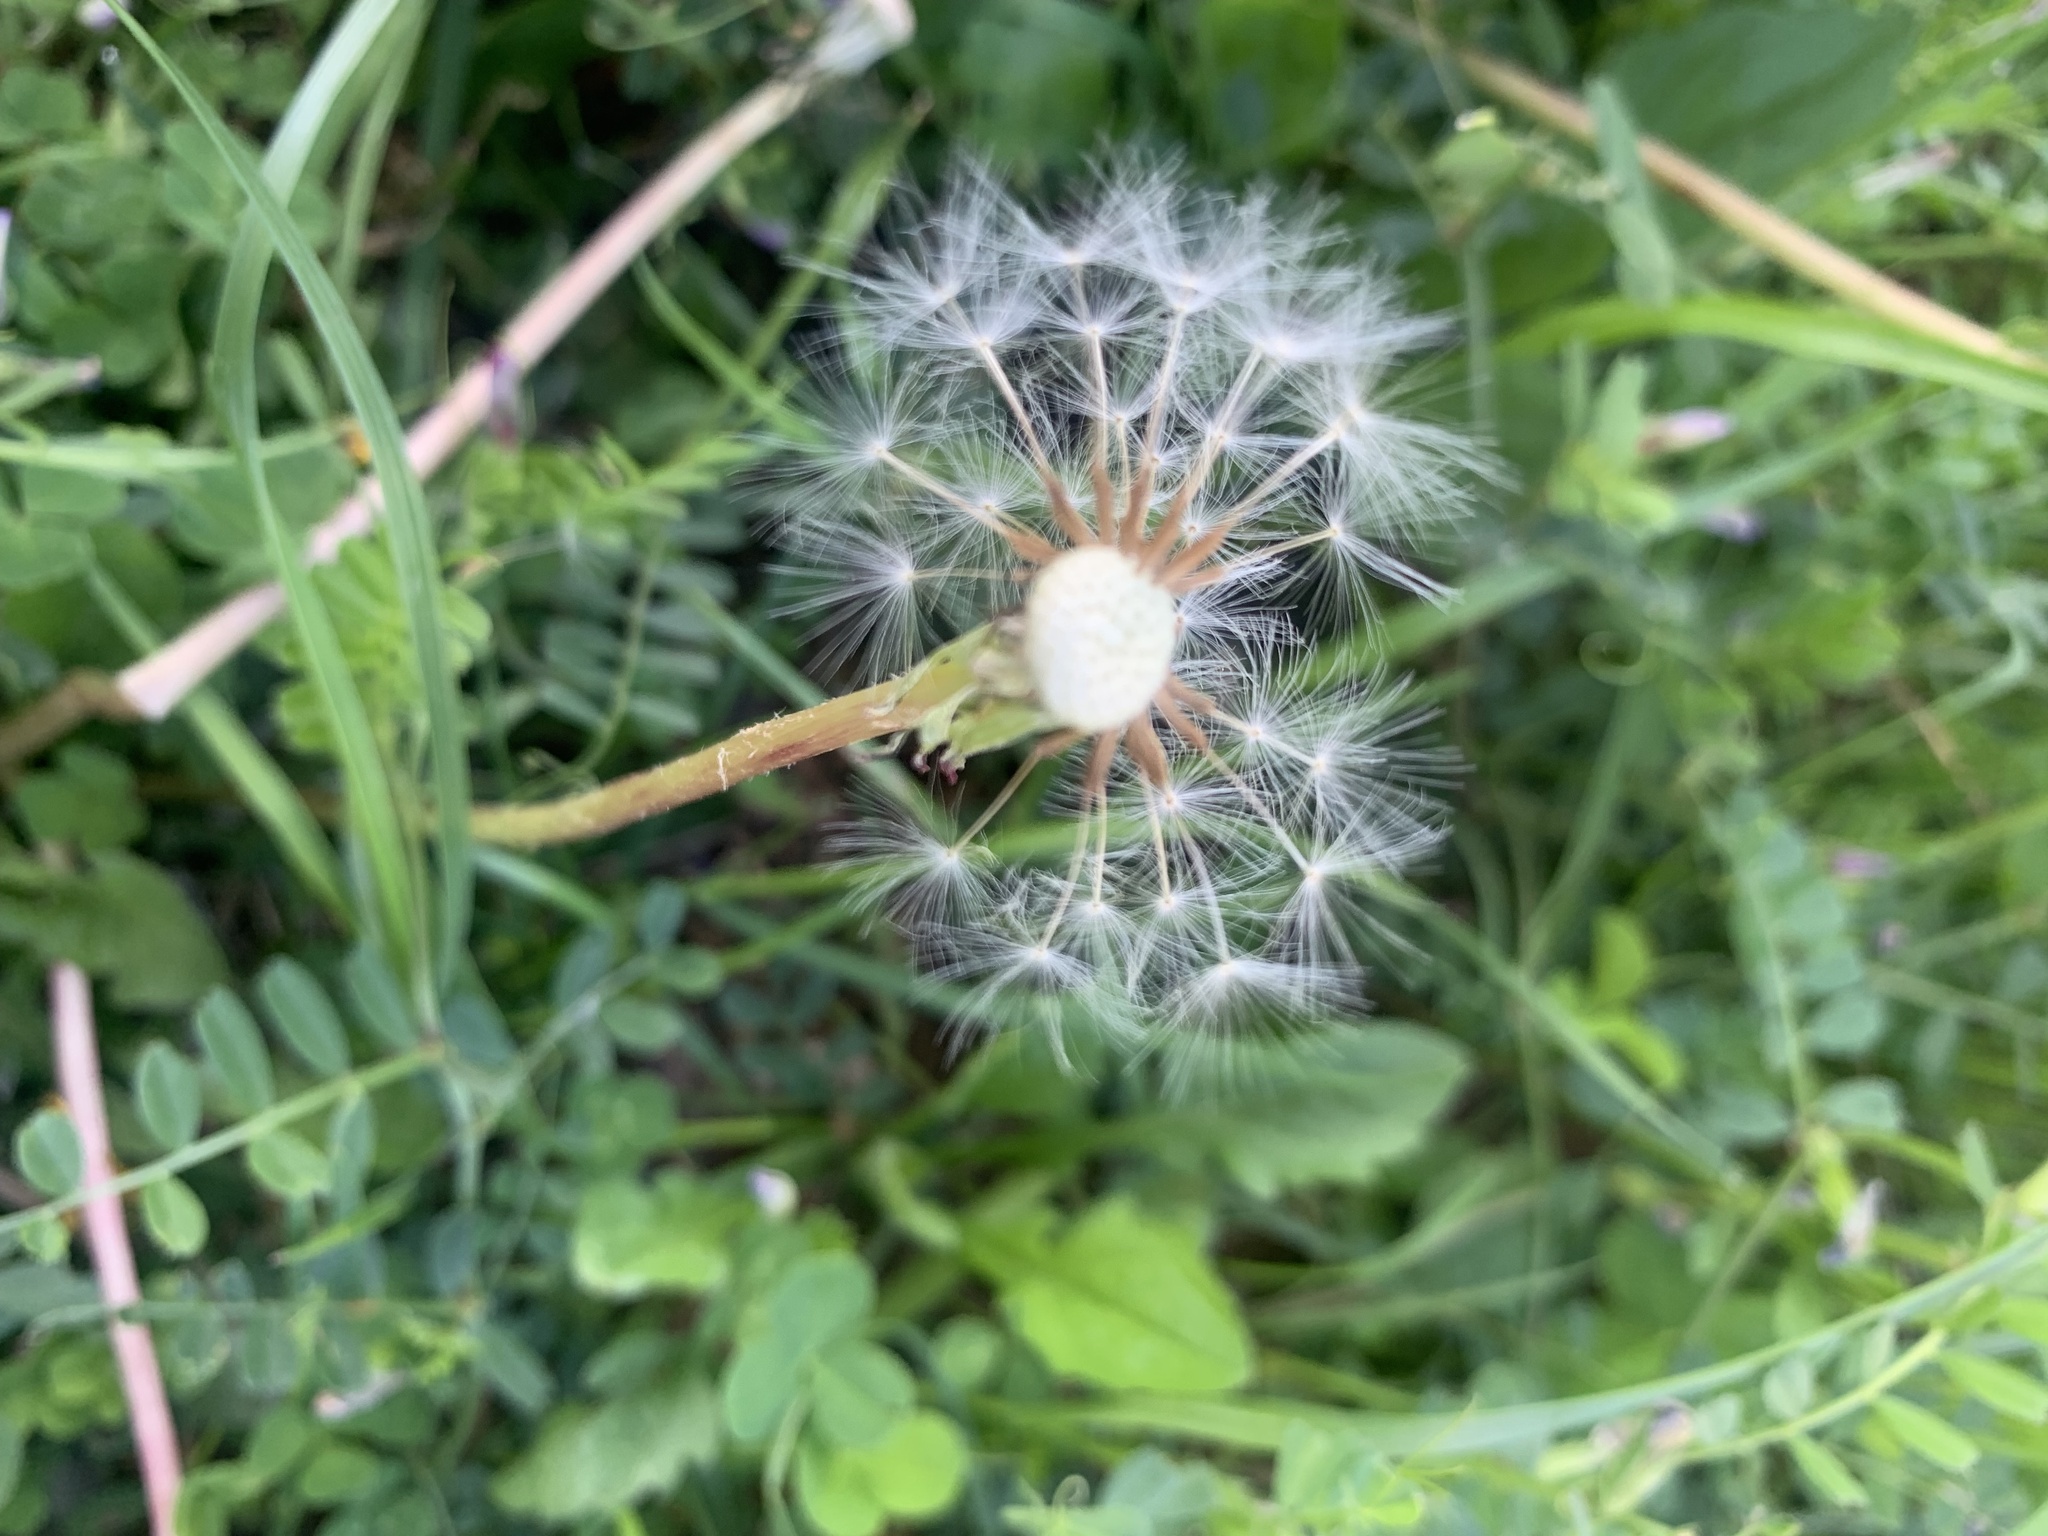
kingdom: Plantae
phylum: Tracheophyta
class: Magnoliopsida
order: Asterales
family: Asteraceae
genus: Taraxacum
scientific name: Taraxacum officinale
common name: Common dandelion
